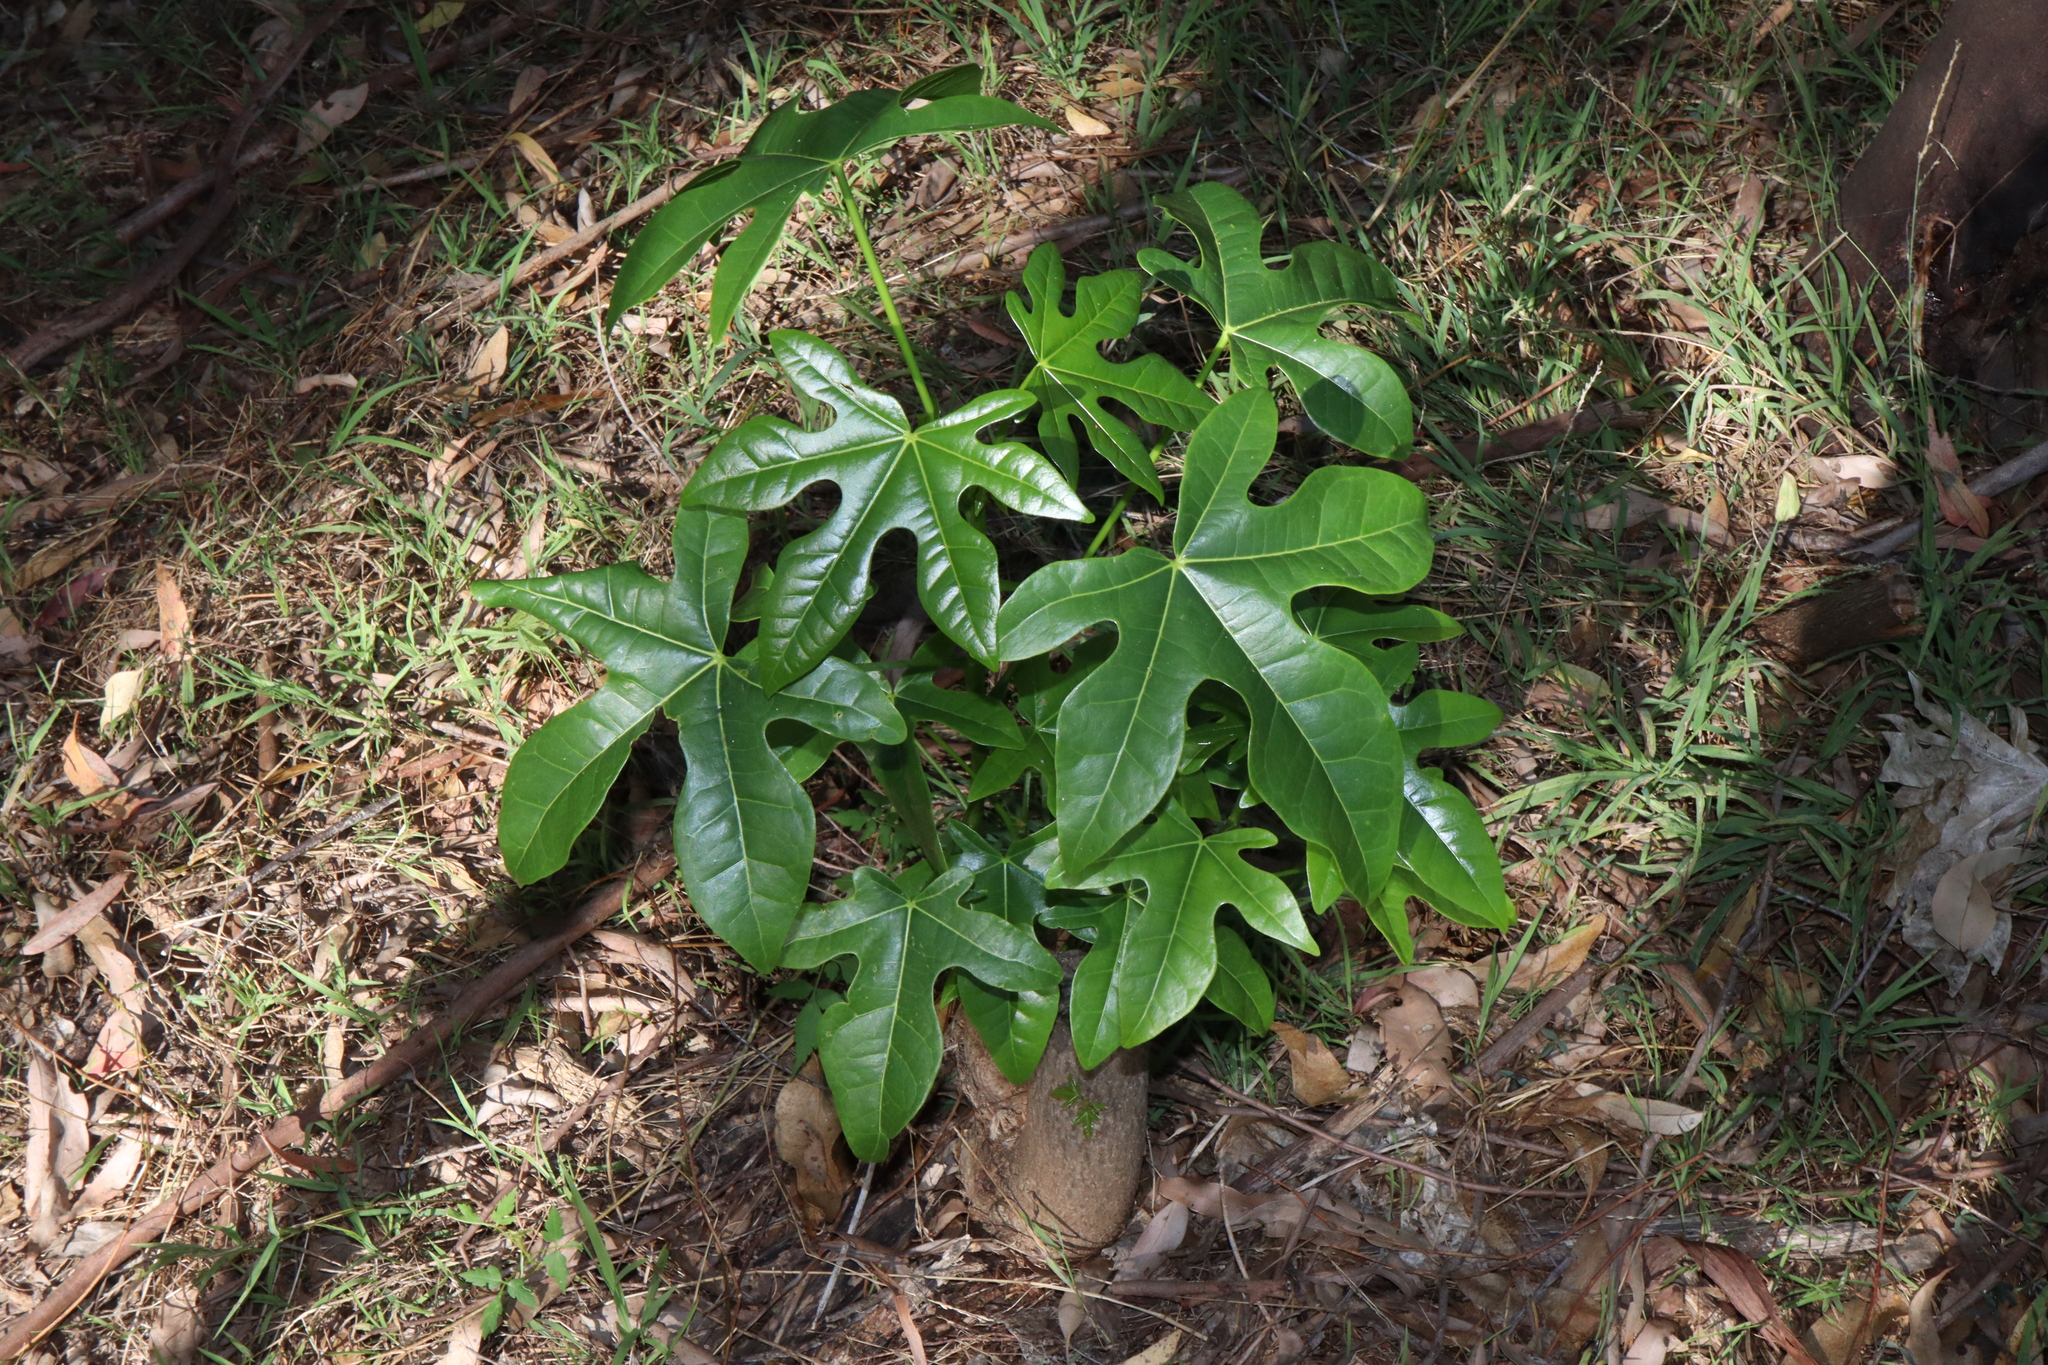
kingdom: Plantae
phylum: Tracheophyta
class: Magnoliopsida
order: Malvales
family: Malvaceae
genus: Brachychiton
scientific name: Brachychiton acerifolius
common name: Illawarra flame tree
